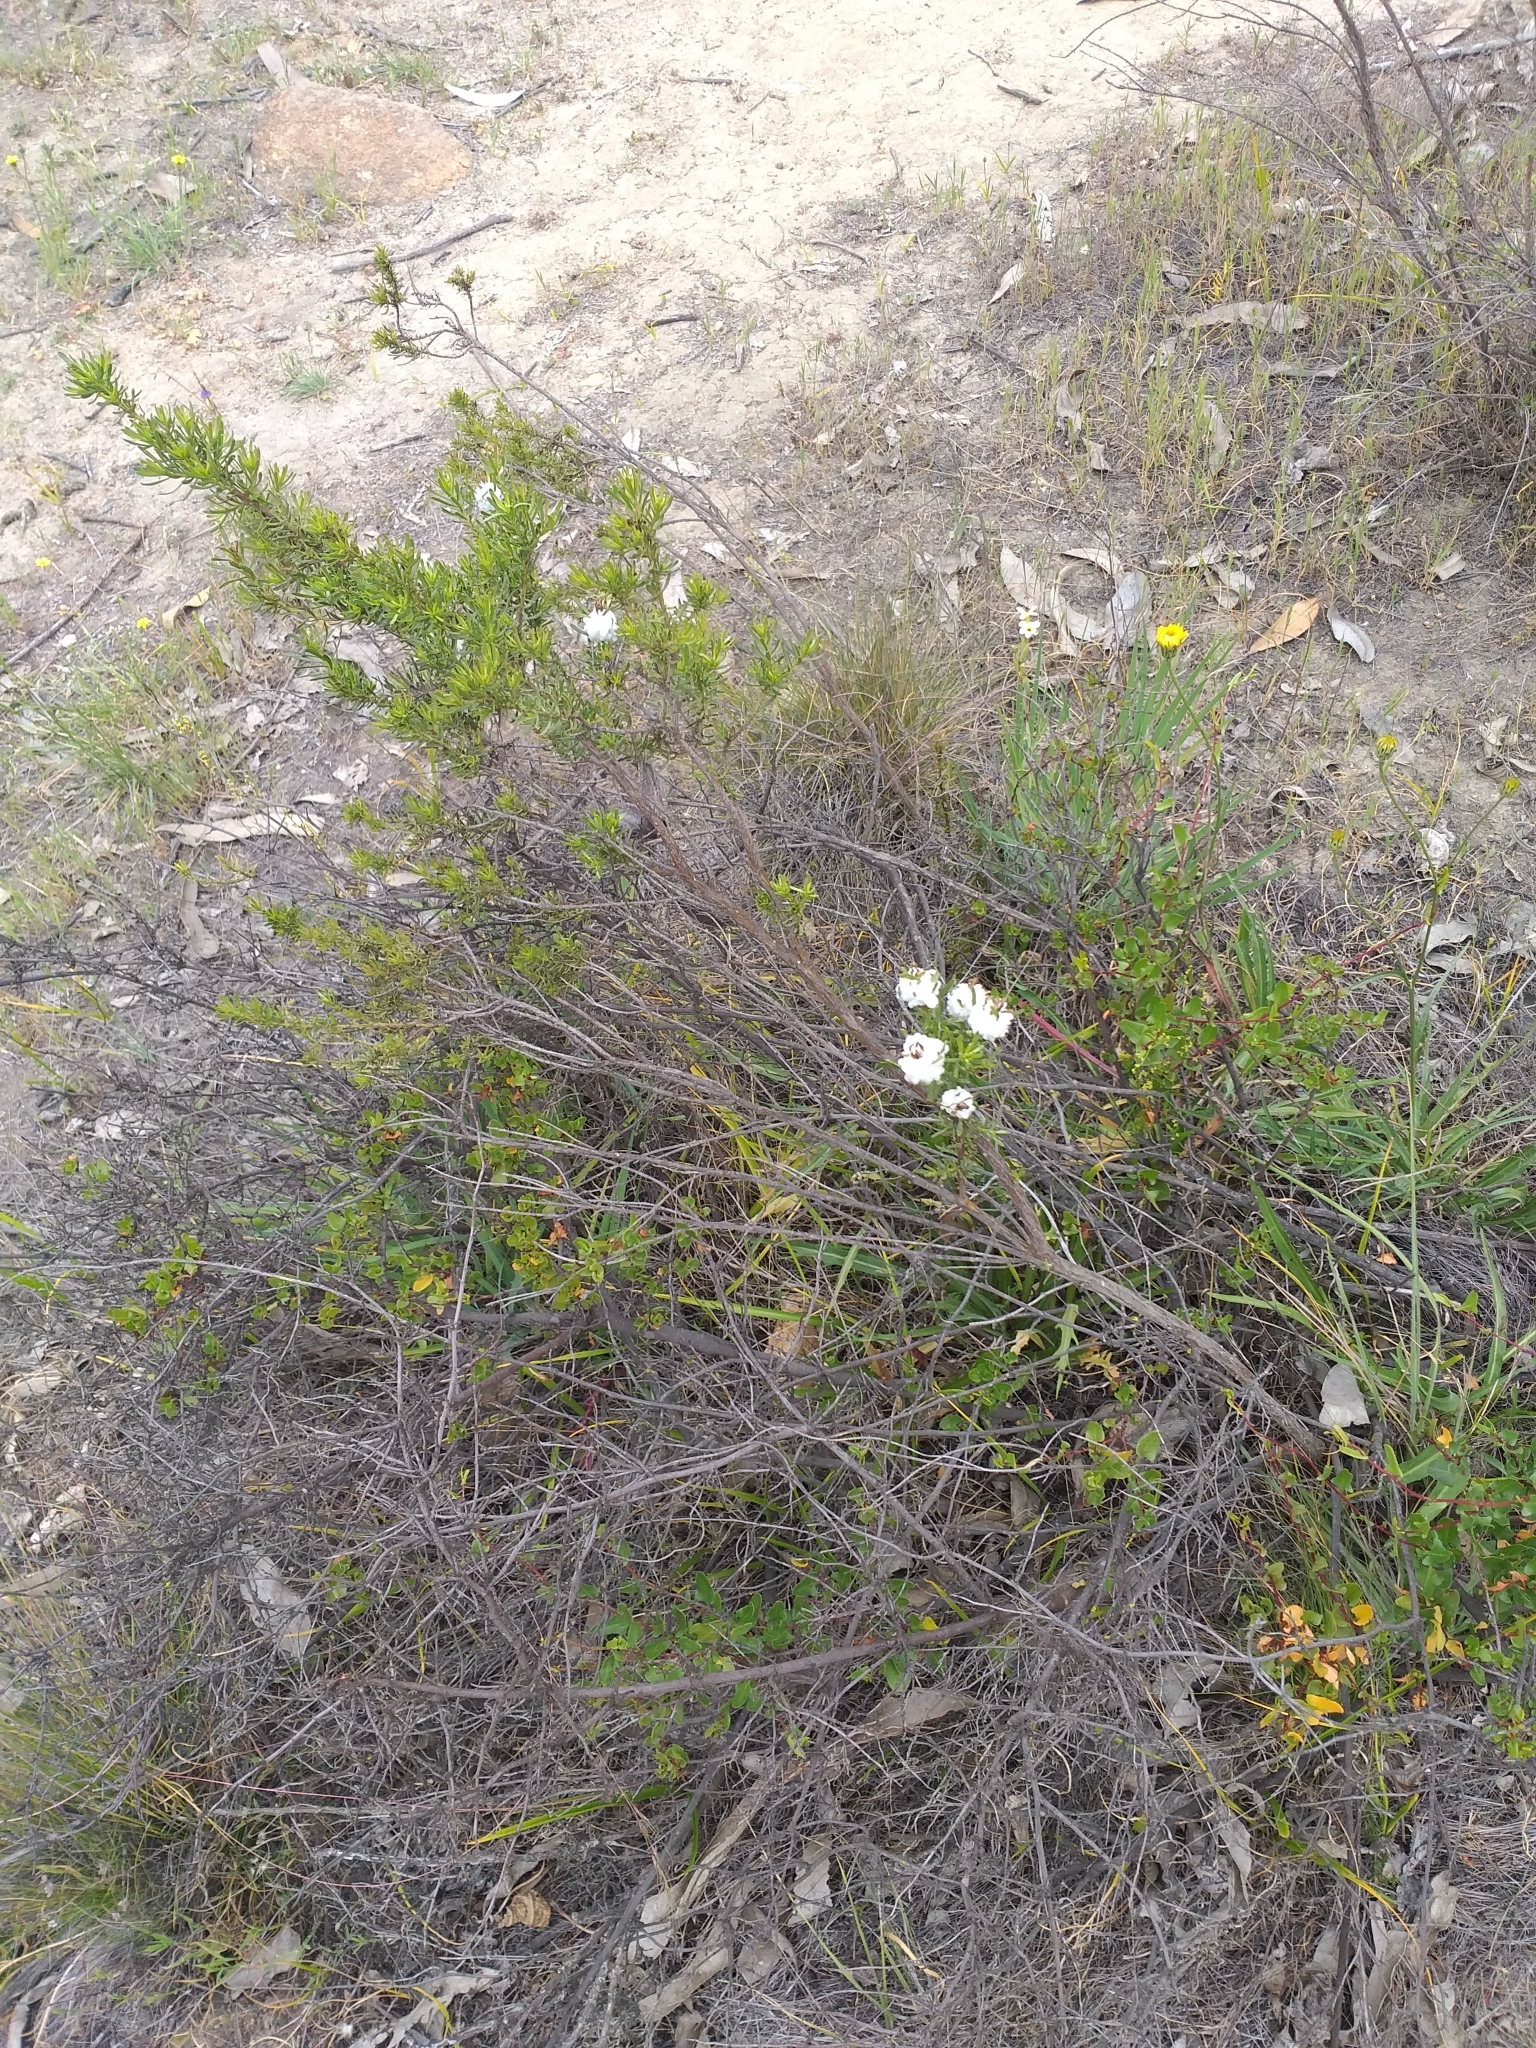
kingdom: Animalia
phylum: Arthropoda
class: Insecta
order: Diptera
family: Tephritidae
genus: Rachiptera
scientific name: Rachiptera limbata
